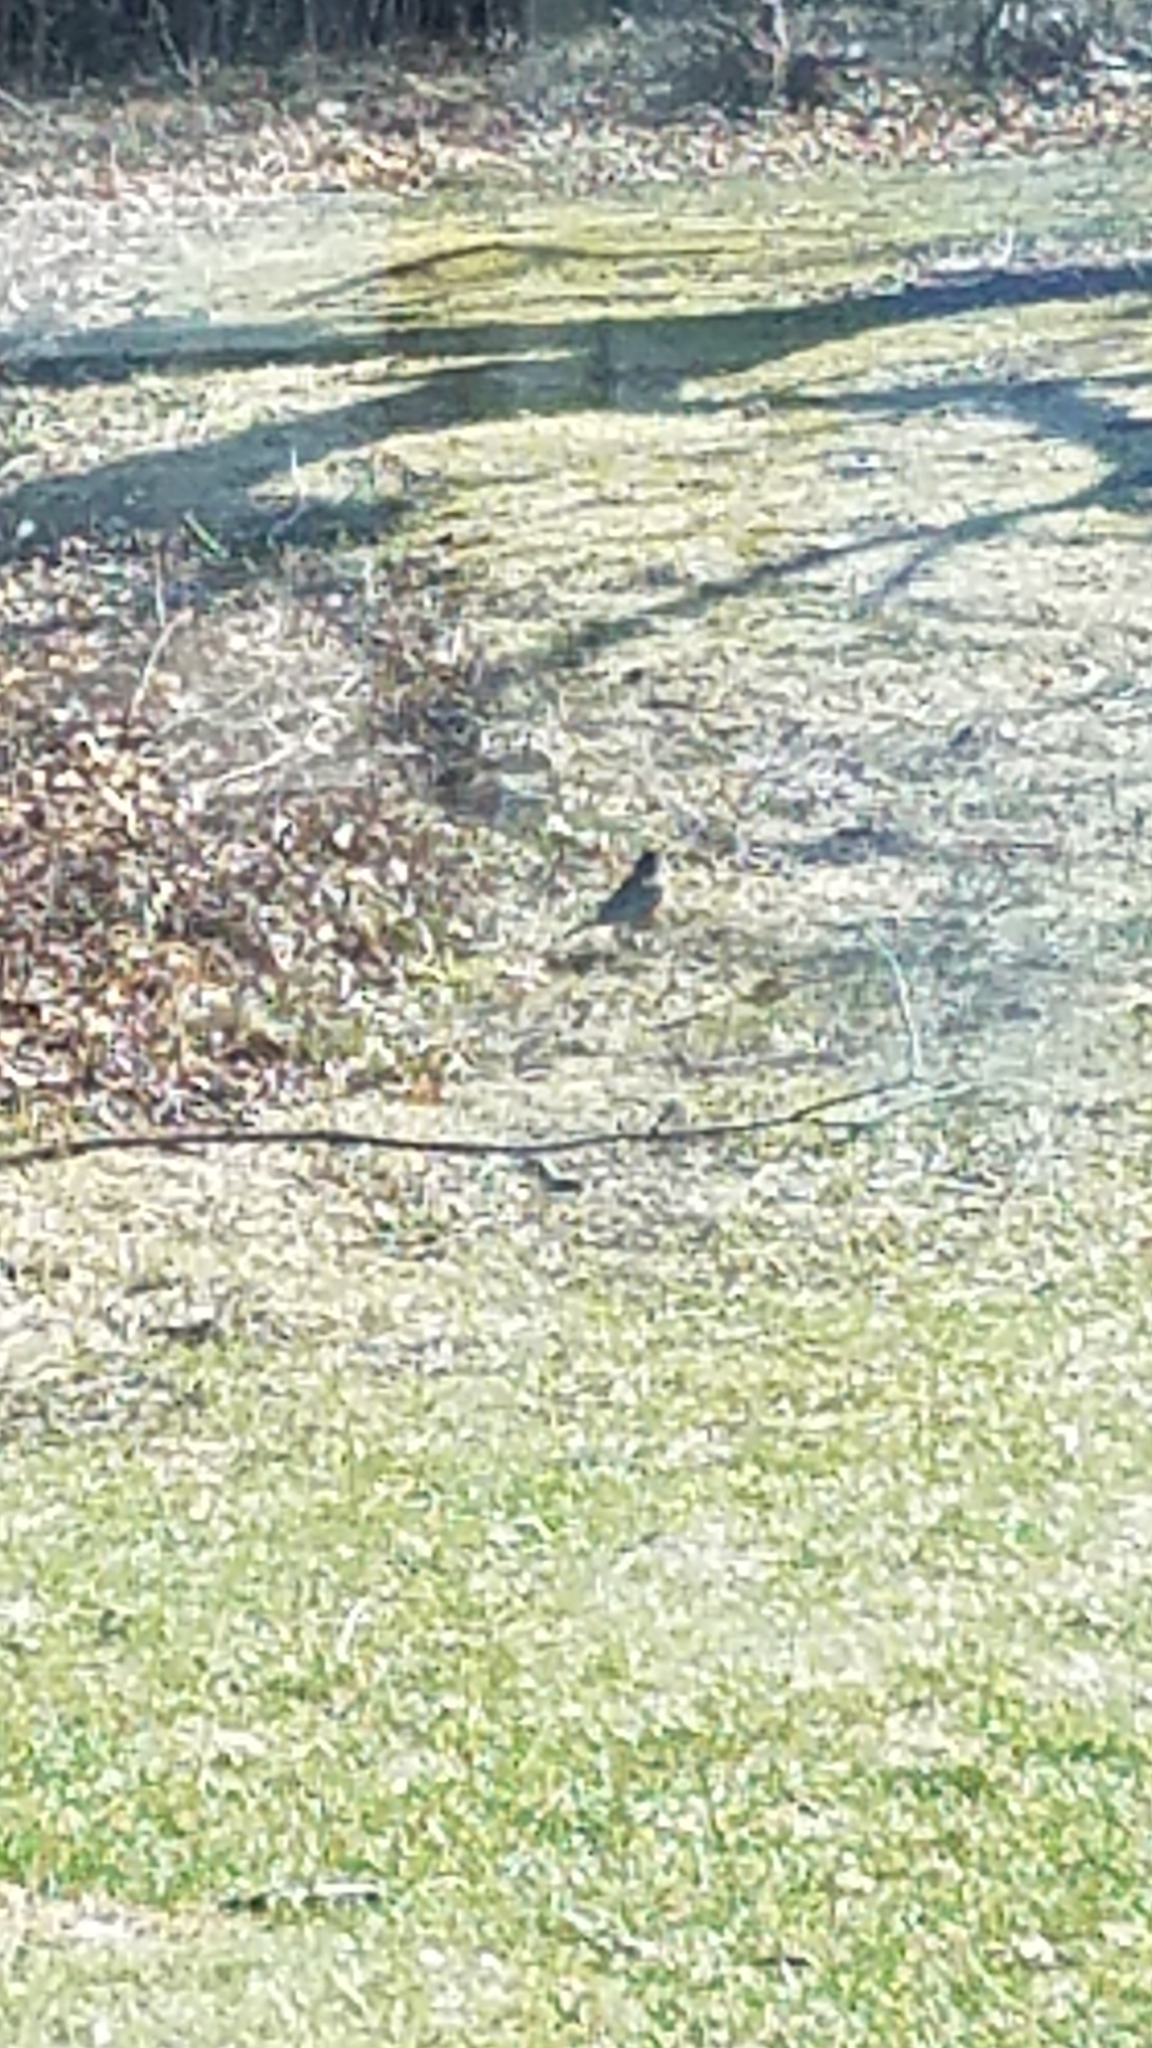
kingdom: Animalia
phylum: Chordata
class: Aves
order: Passeriformes
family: Turdidae
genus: Turdus
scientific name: Turdus migratorius
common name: American robin
